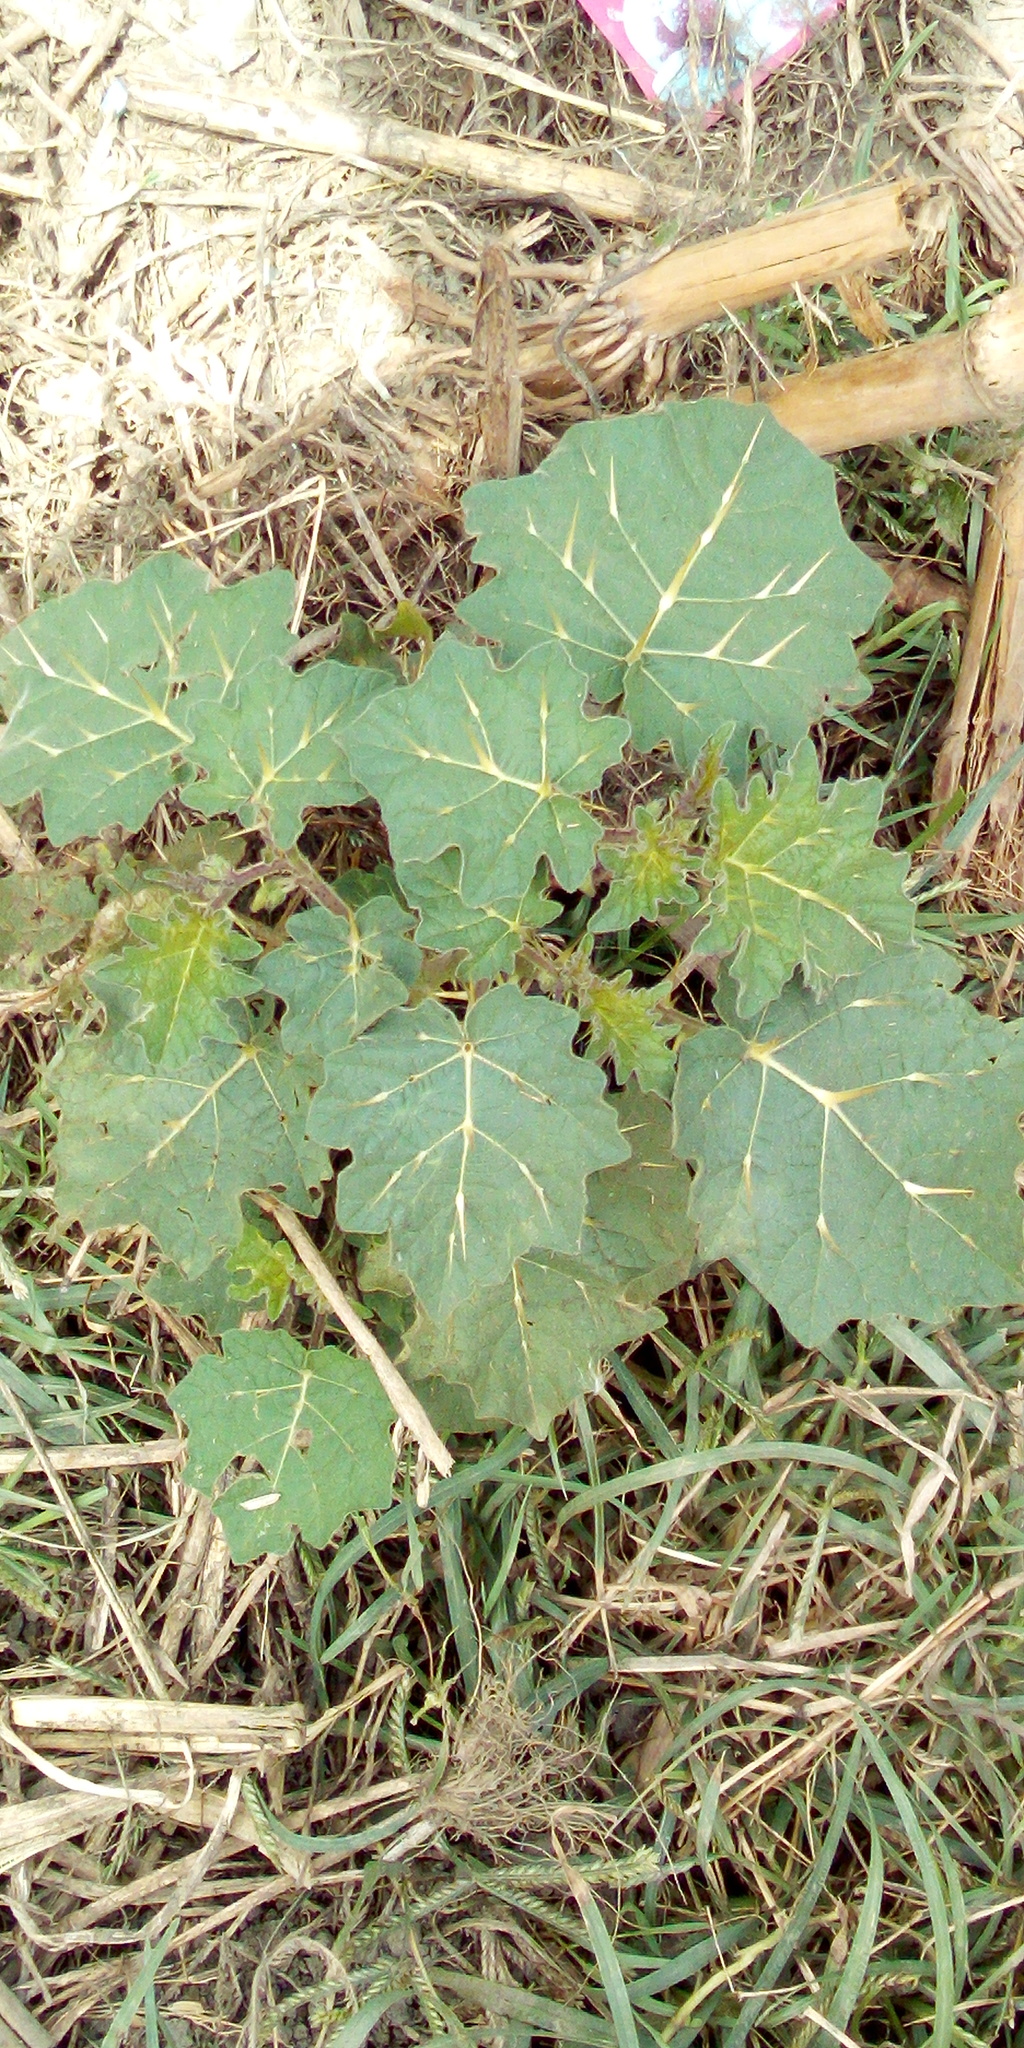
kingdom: Plantae
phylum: Tracheophyta
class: Magnoliopsida
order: Solanales
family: Solanaceae
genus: Solanum
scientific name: Solanum viarum
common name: Tropical soda apple
